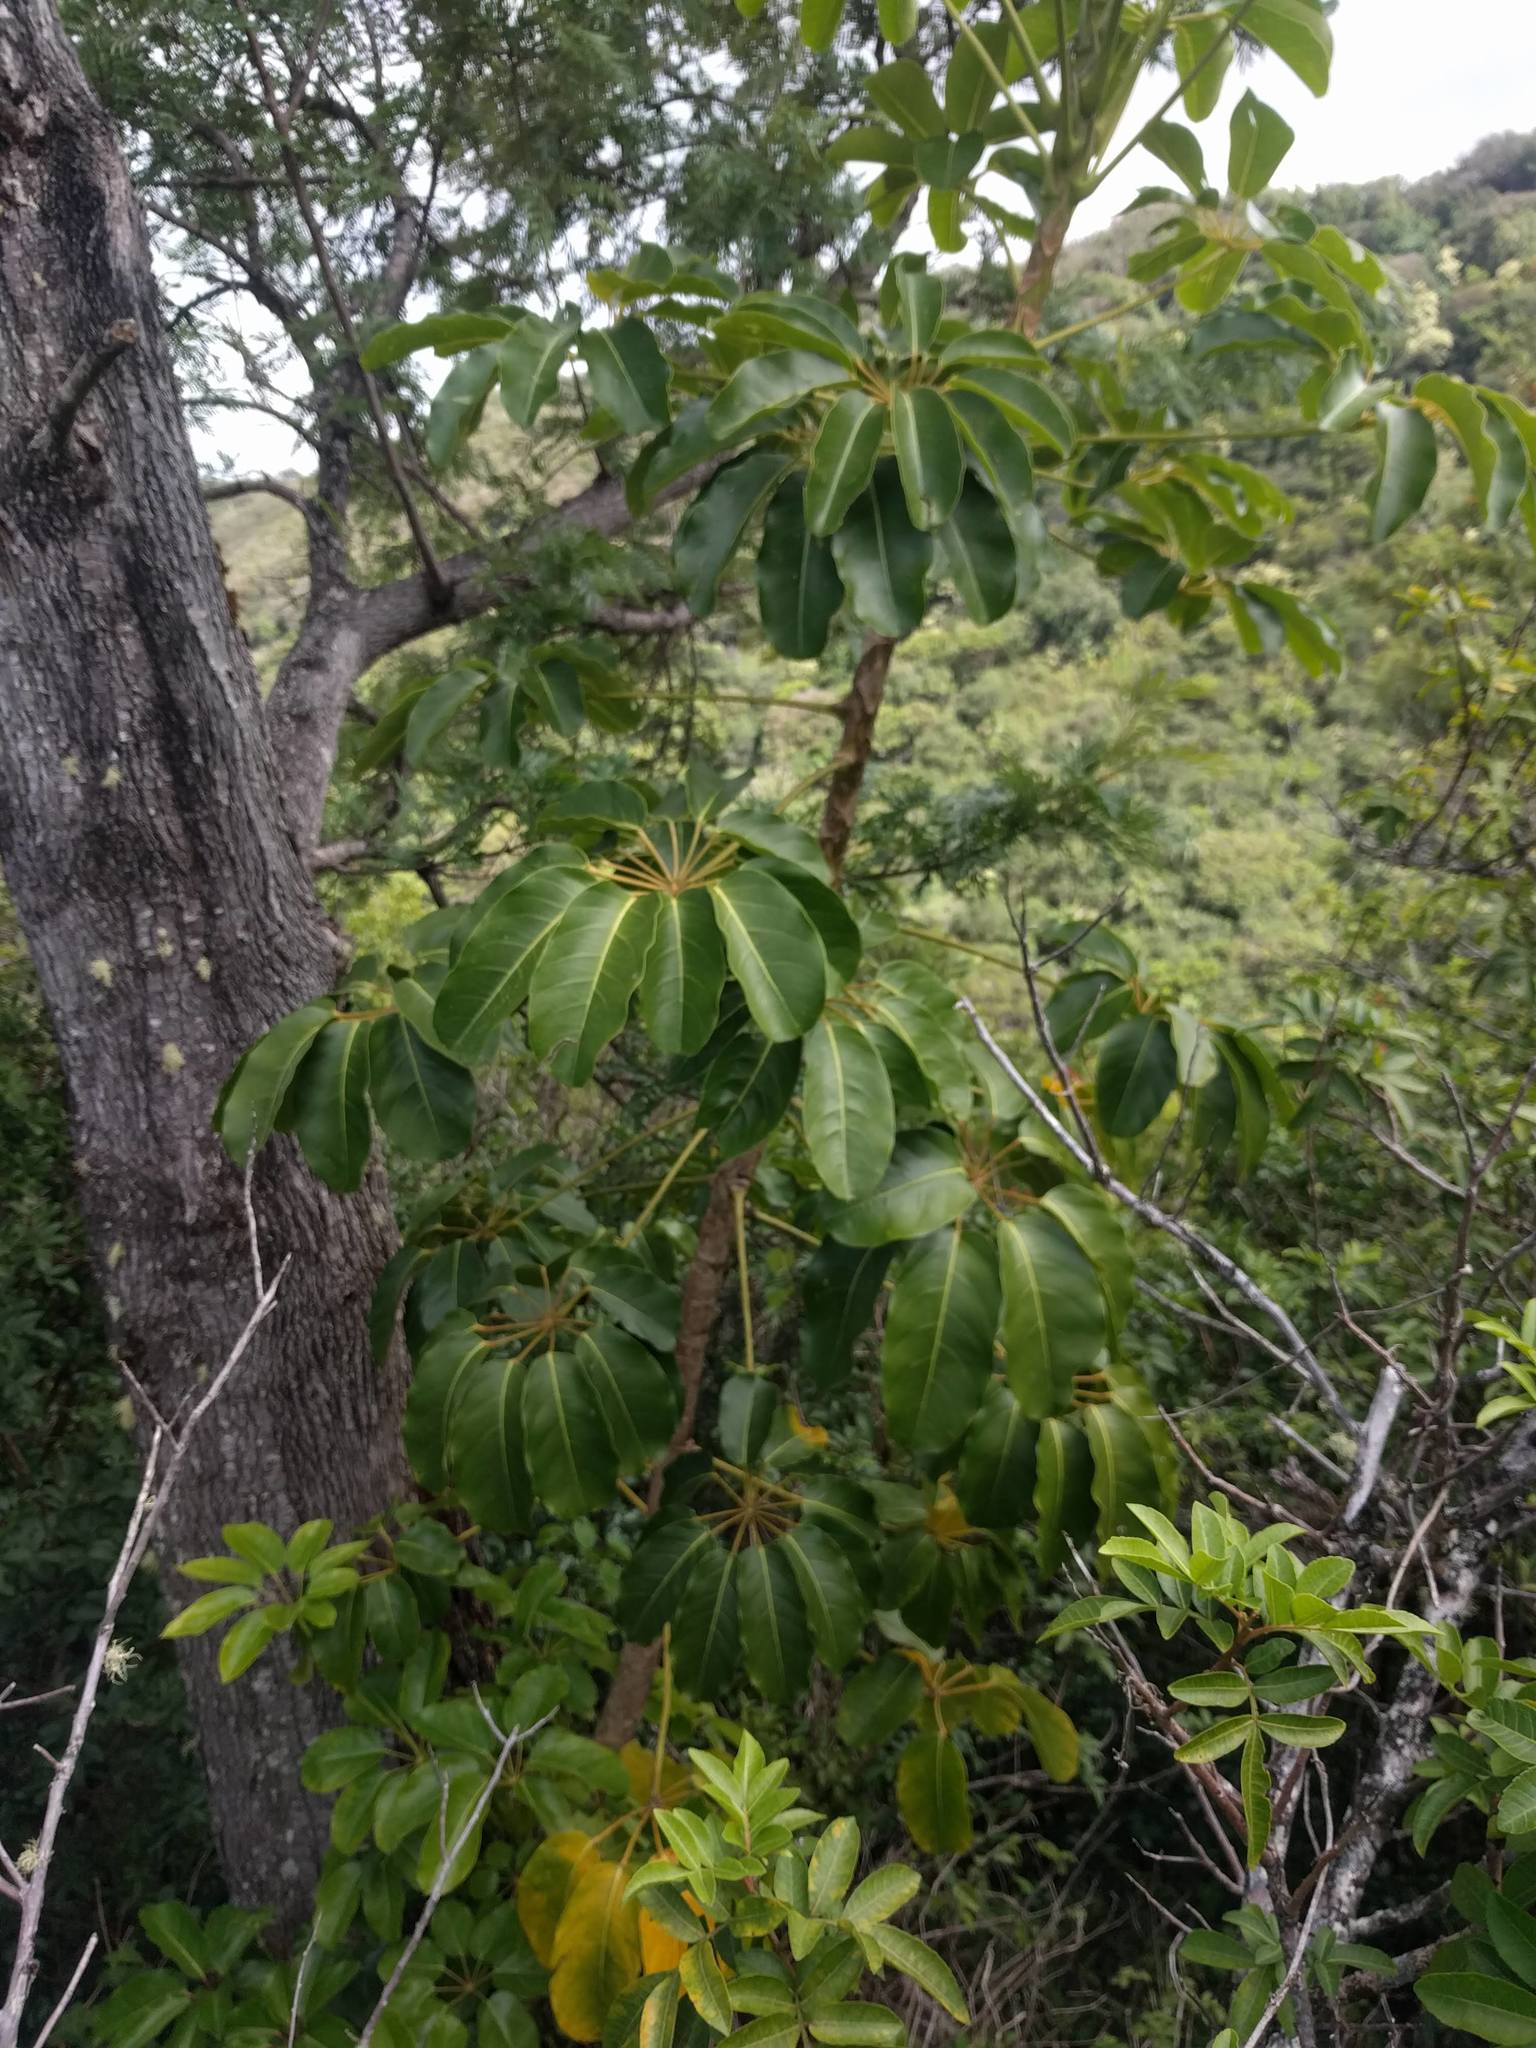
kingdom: Plantae
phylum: Tracheophyta
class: Magnoliopsida
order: Apiales
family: Araliaceae
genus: Heptapleurum
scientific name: Heptapleurum actinophyllum
